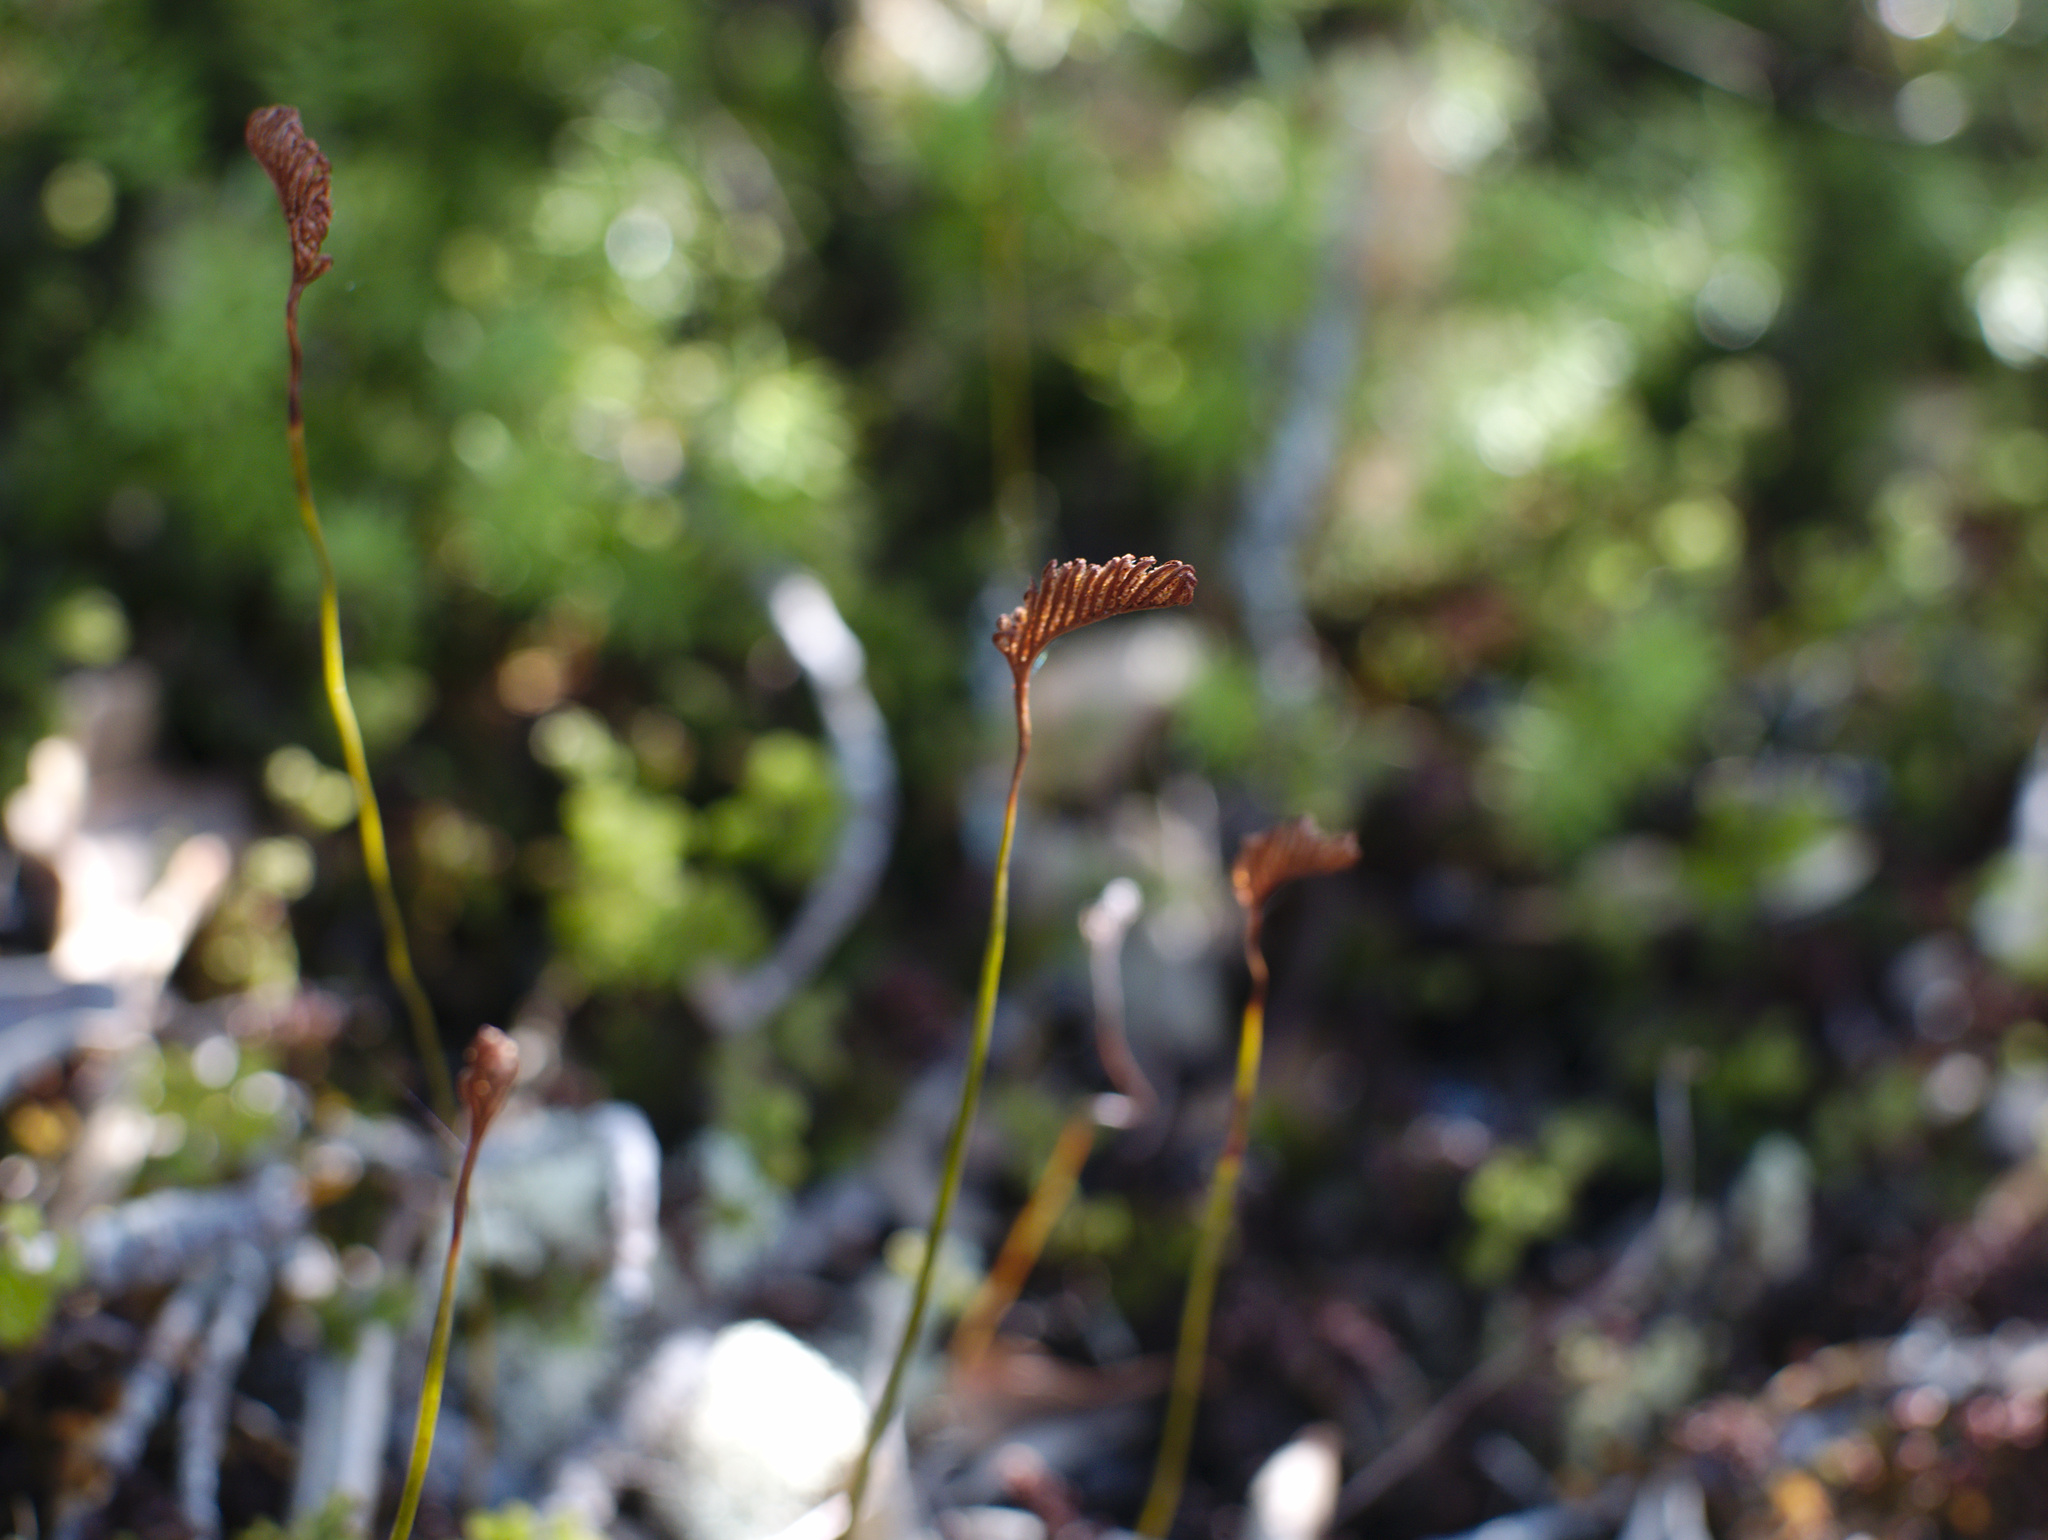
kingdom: Plantae
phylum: Tracheophyta
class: Polypodiopsida
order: Schizaeales
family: Schizaeaceae
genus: Microschizaea
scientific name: Microschizaea fistulosa
